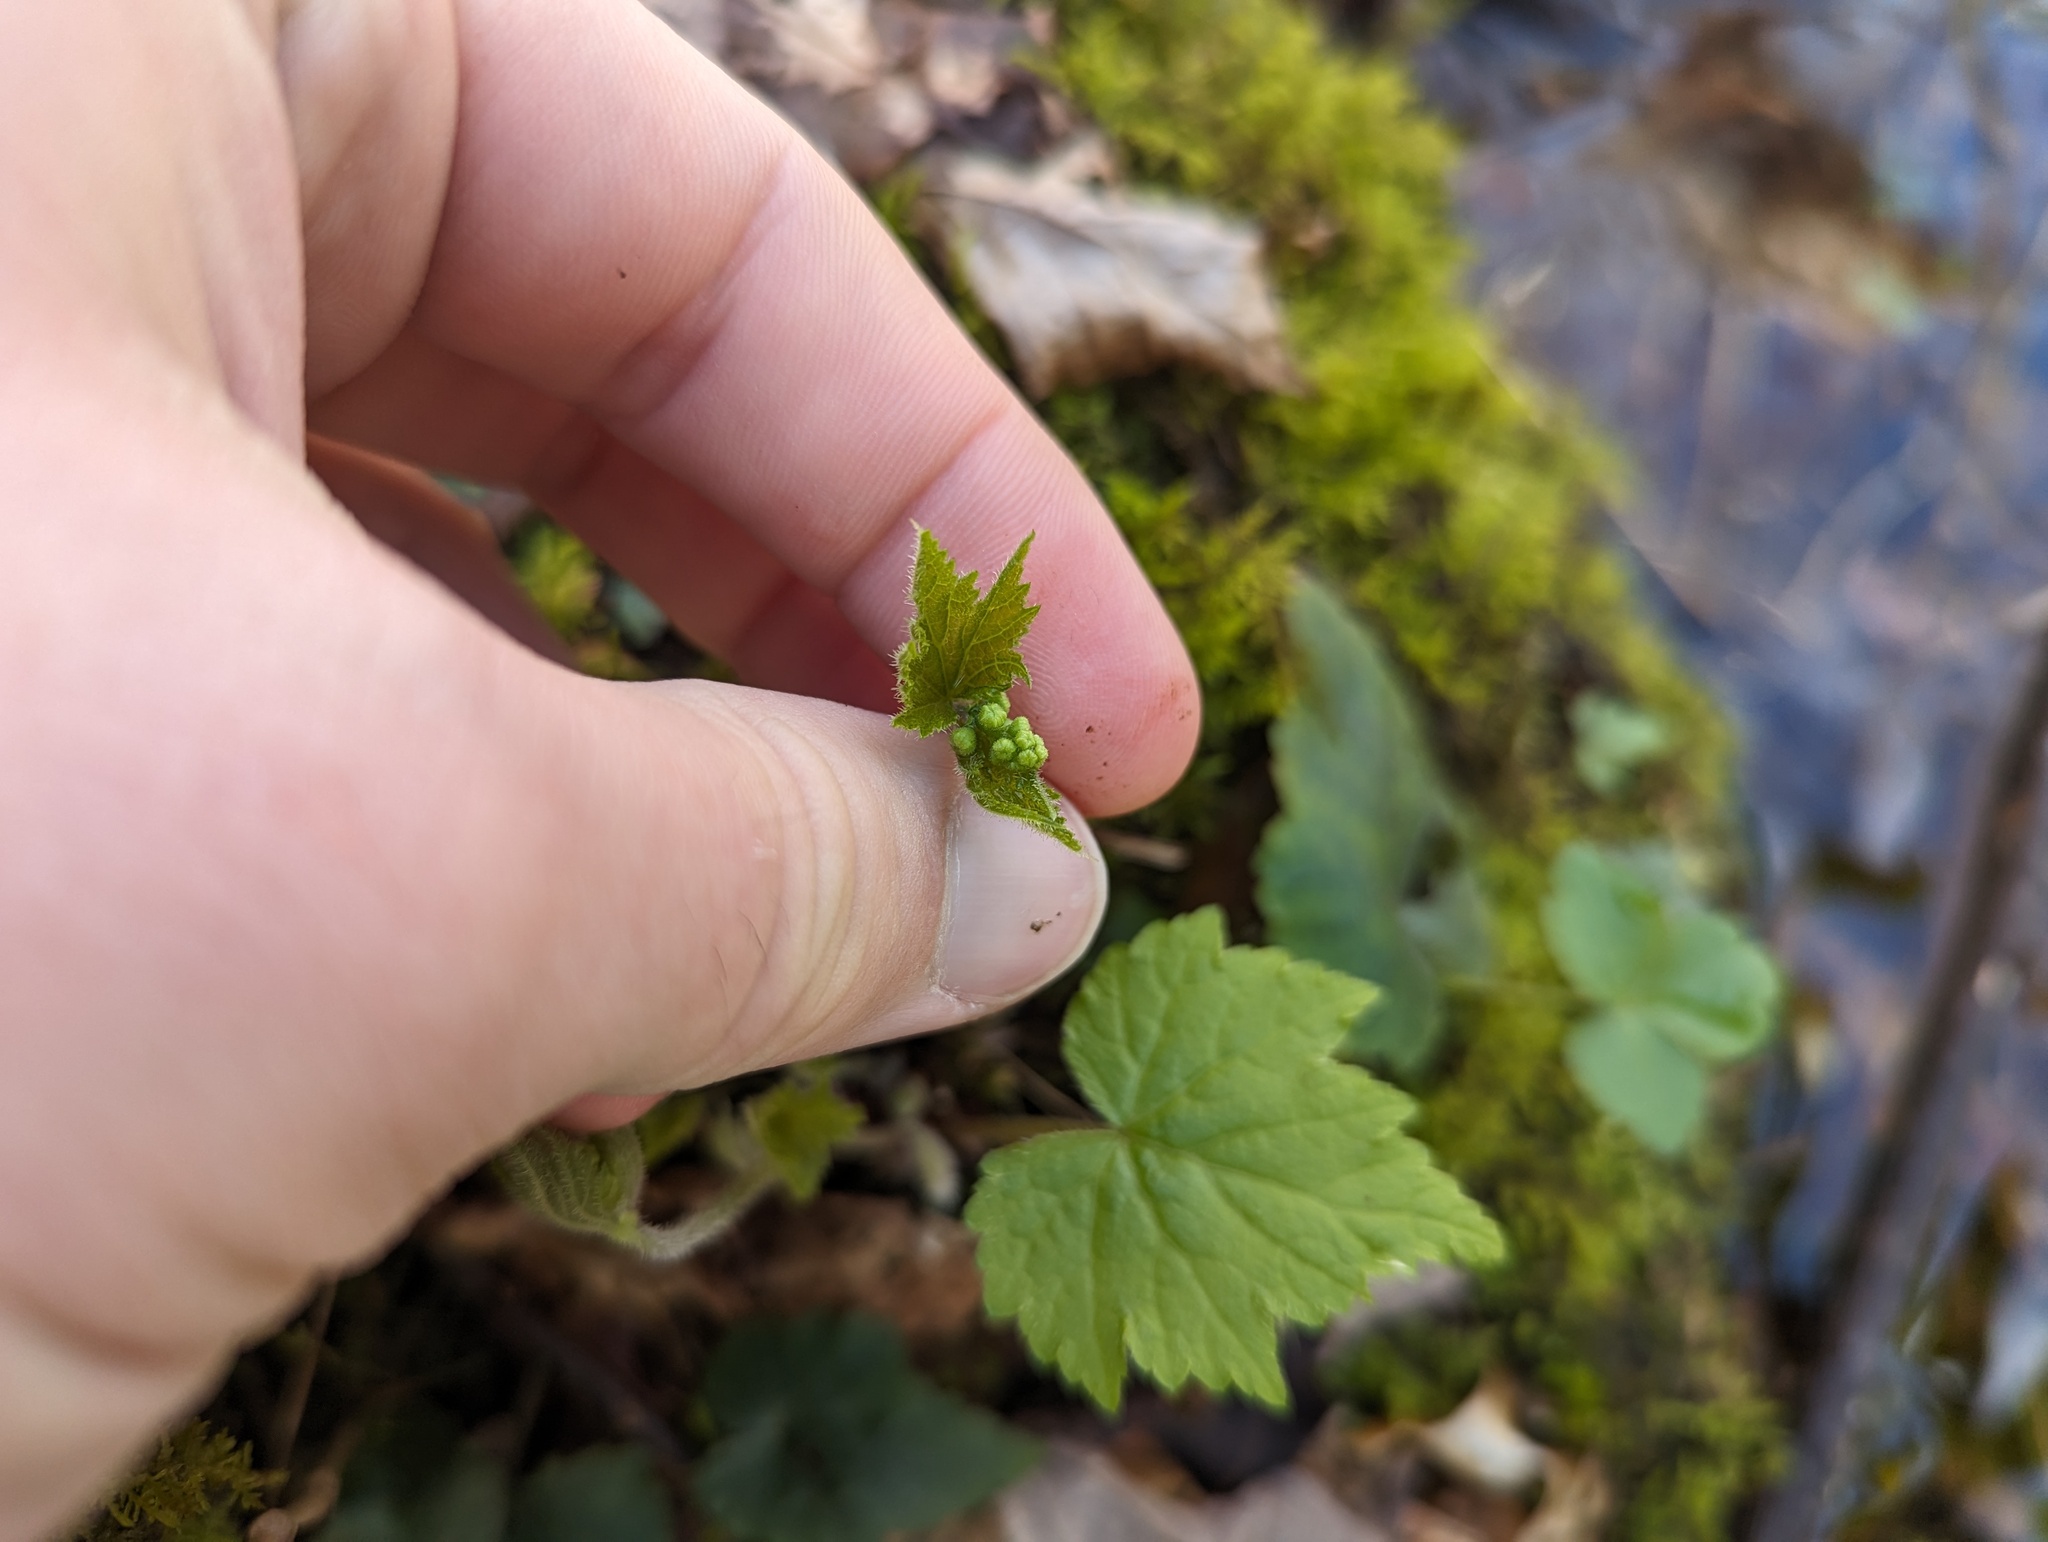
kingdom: Plantae
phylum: Tracheophyta
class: Magnoliopsida
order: Saxifragales
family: Saxifragaceae
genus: Mitella
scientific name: Mitella diphylla
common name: Coolwort
